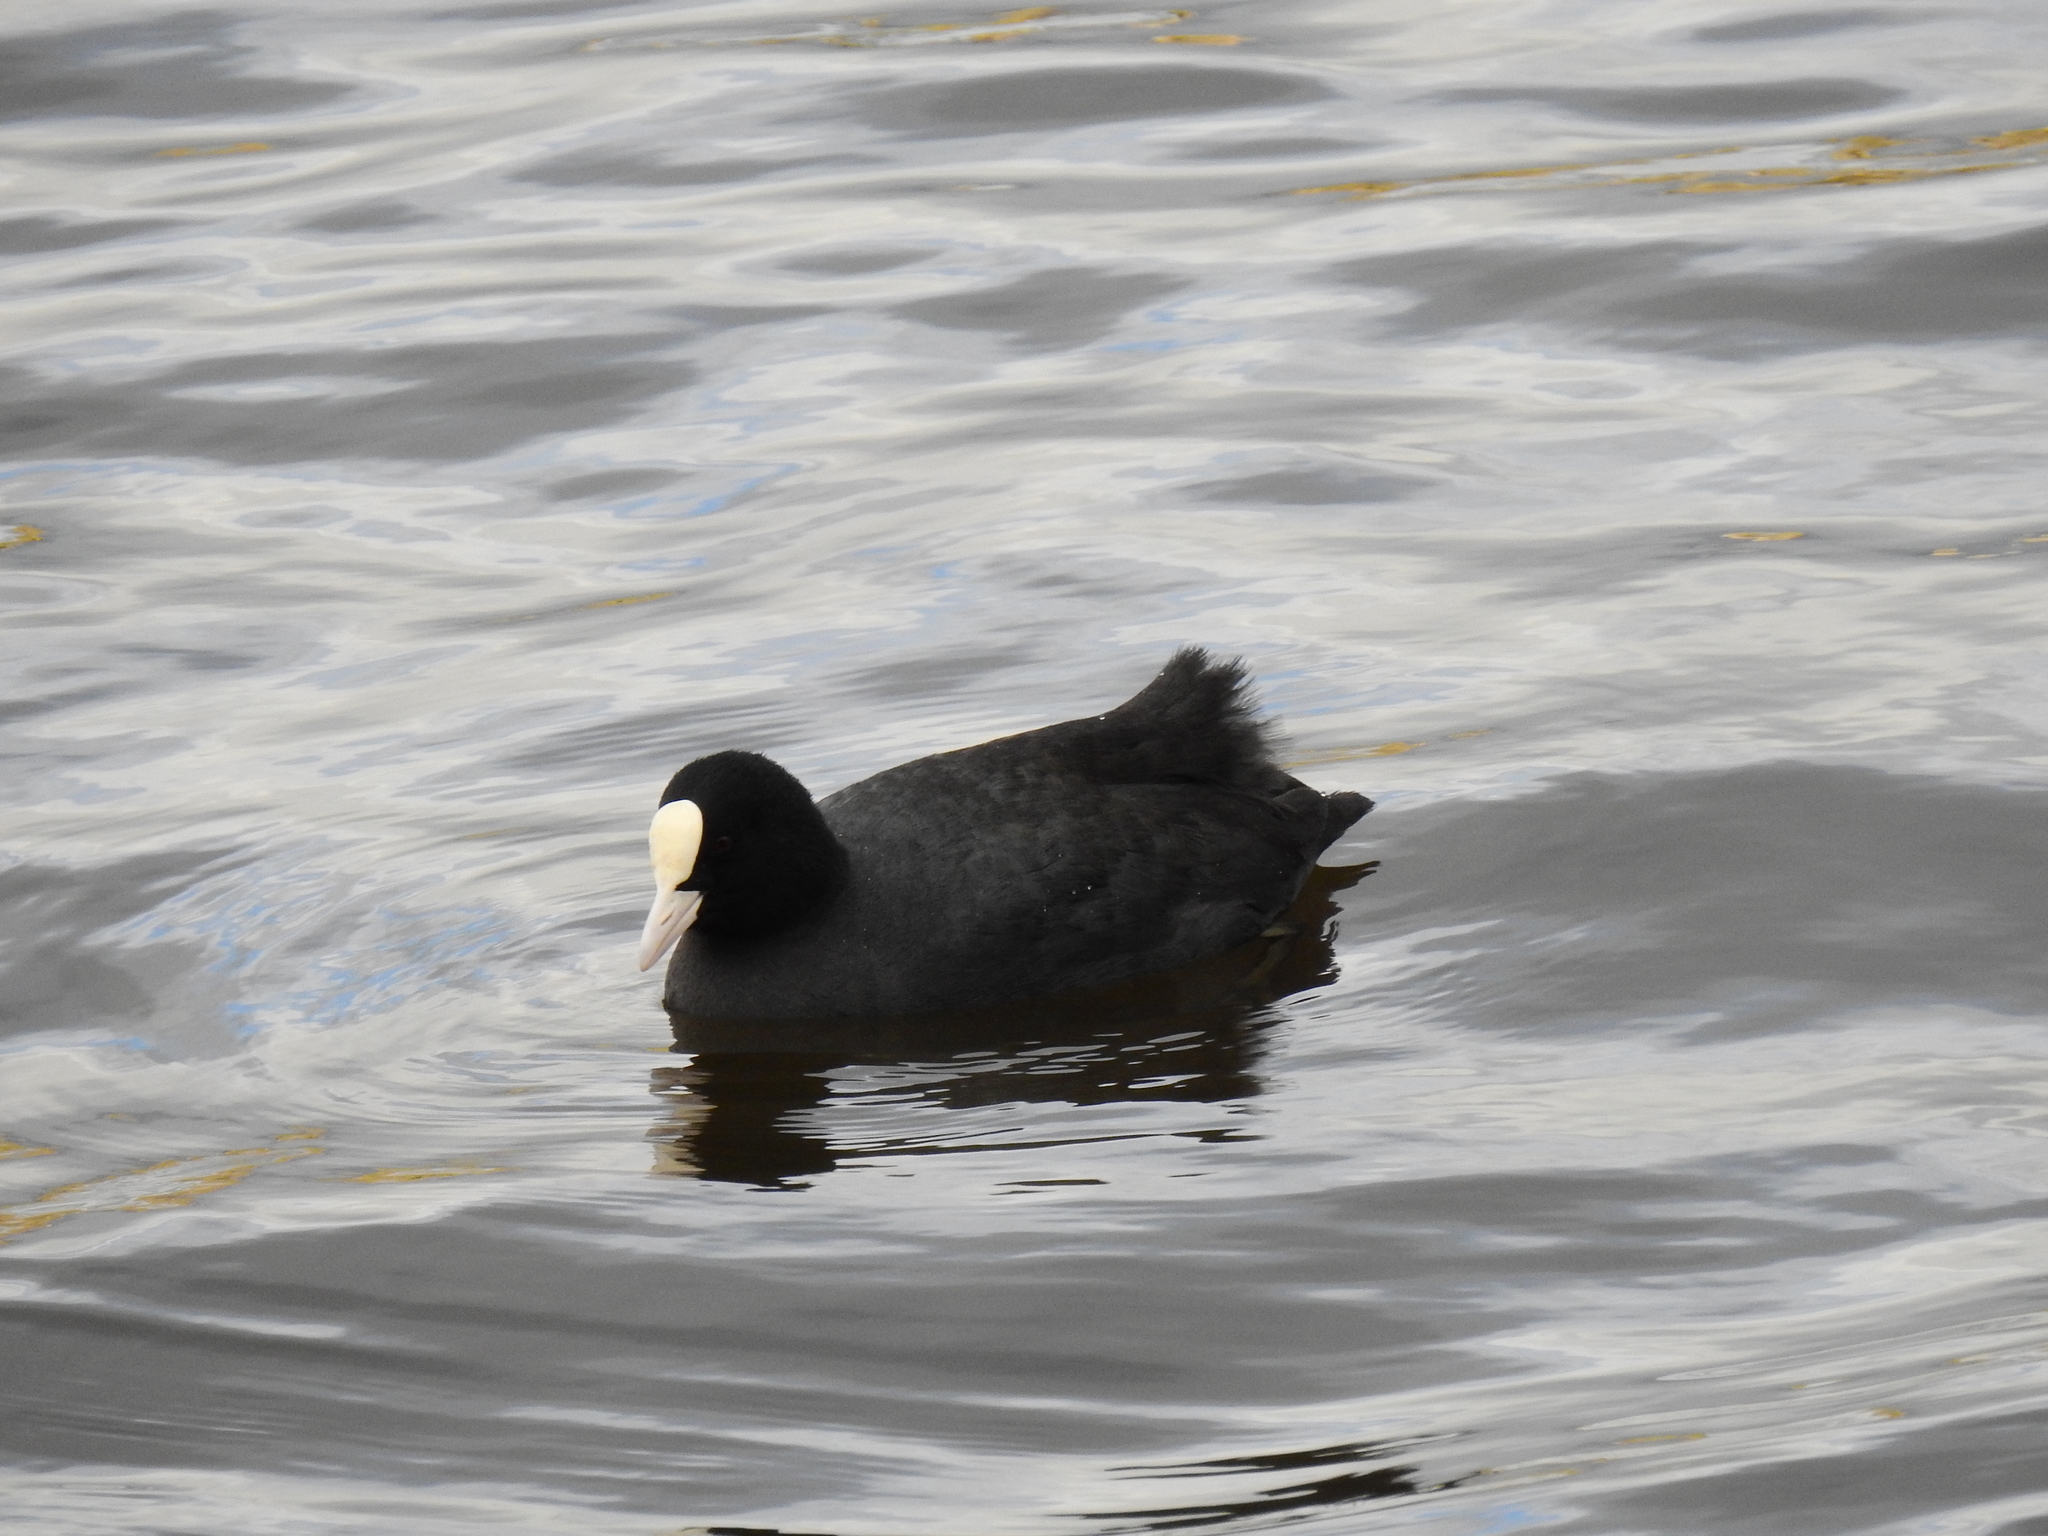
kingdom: Animalia
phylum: Chordata
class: Aves
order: Gruiformes
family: Rallidae
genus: Fulica
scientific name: Fulica atra
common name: Eurasian coot
